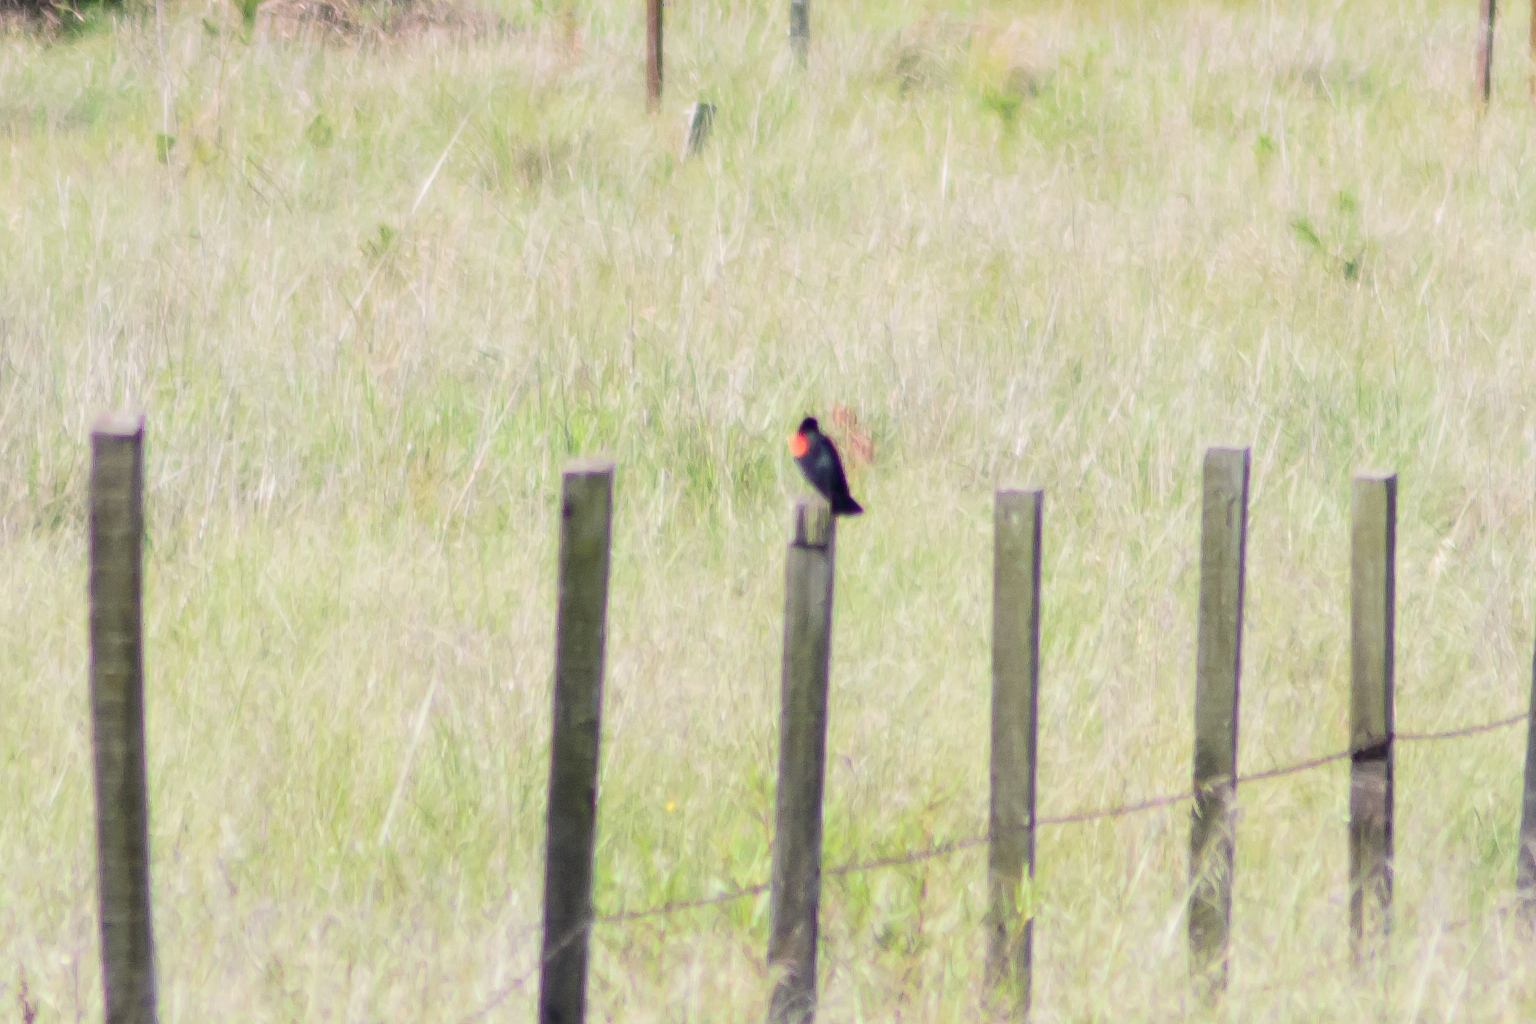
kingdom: Animalia
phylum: Chordata
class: Aves
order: Passeriformes
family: Icteridae
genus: Agelaius
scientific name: Agelaius phoeniceus
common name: Red-winged blackbird
